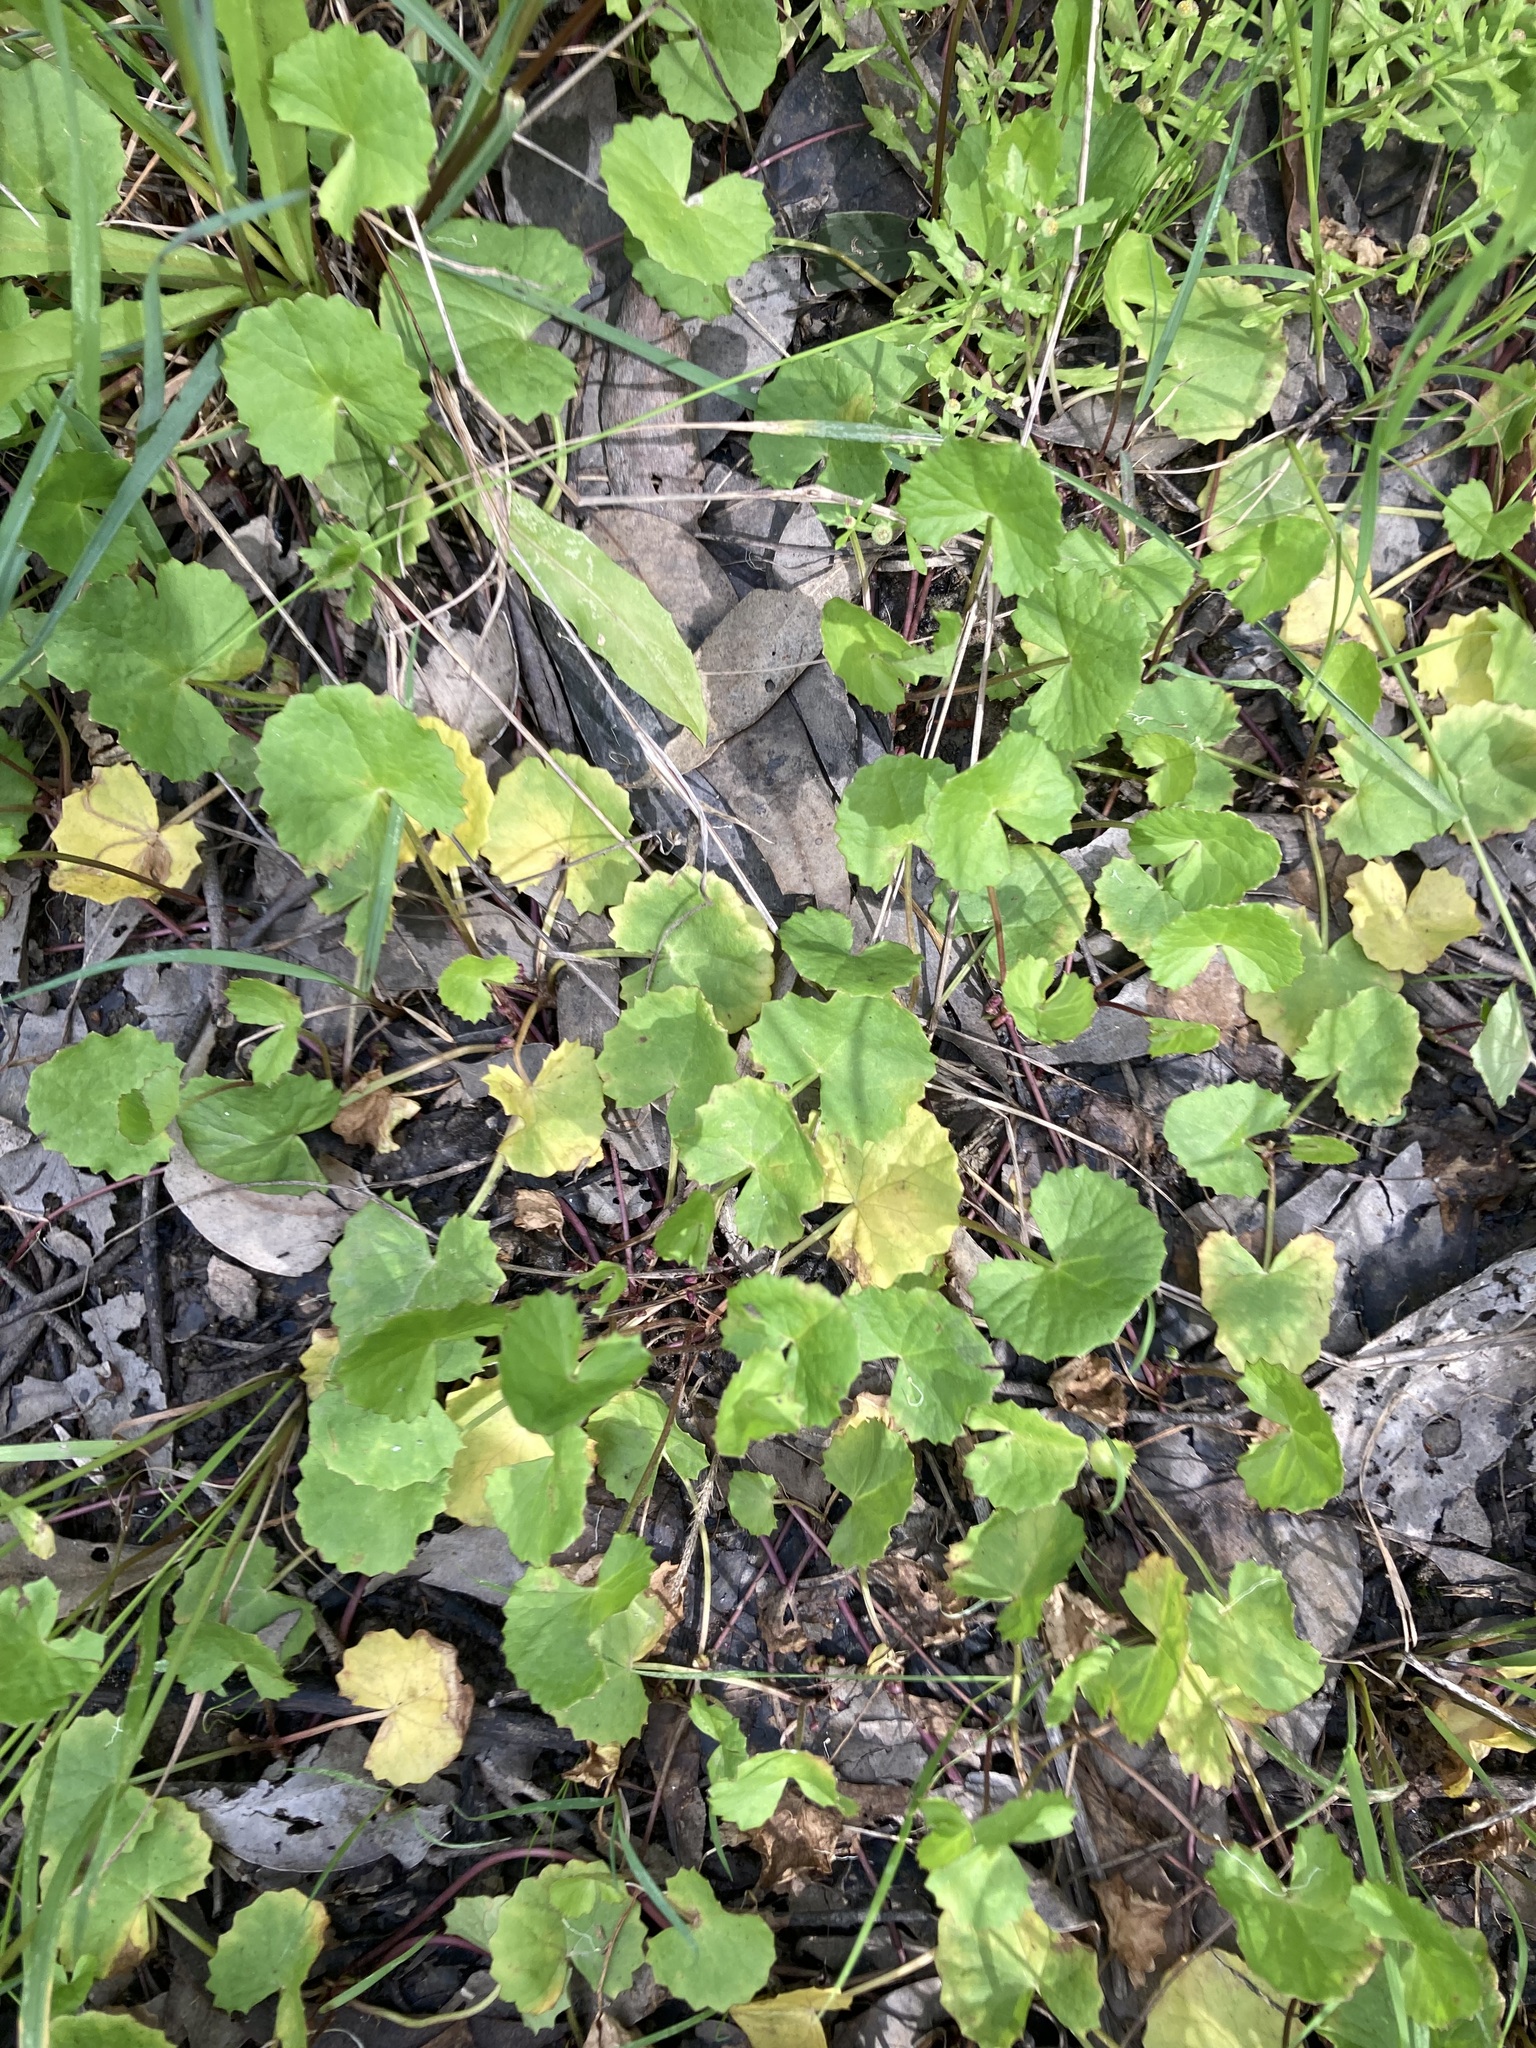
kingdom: Plantae
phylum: Tracheophyta
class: Magnoliopsida
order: Apiales
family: Apiaceae
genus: Centella
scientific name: Centella asiatica
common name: Spadeleaf
